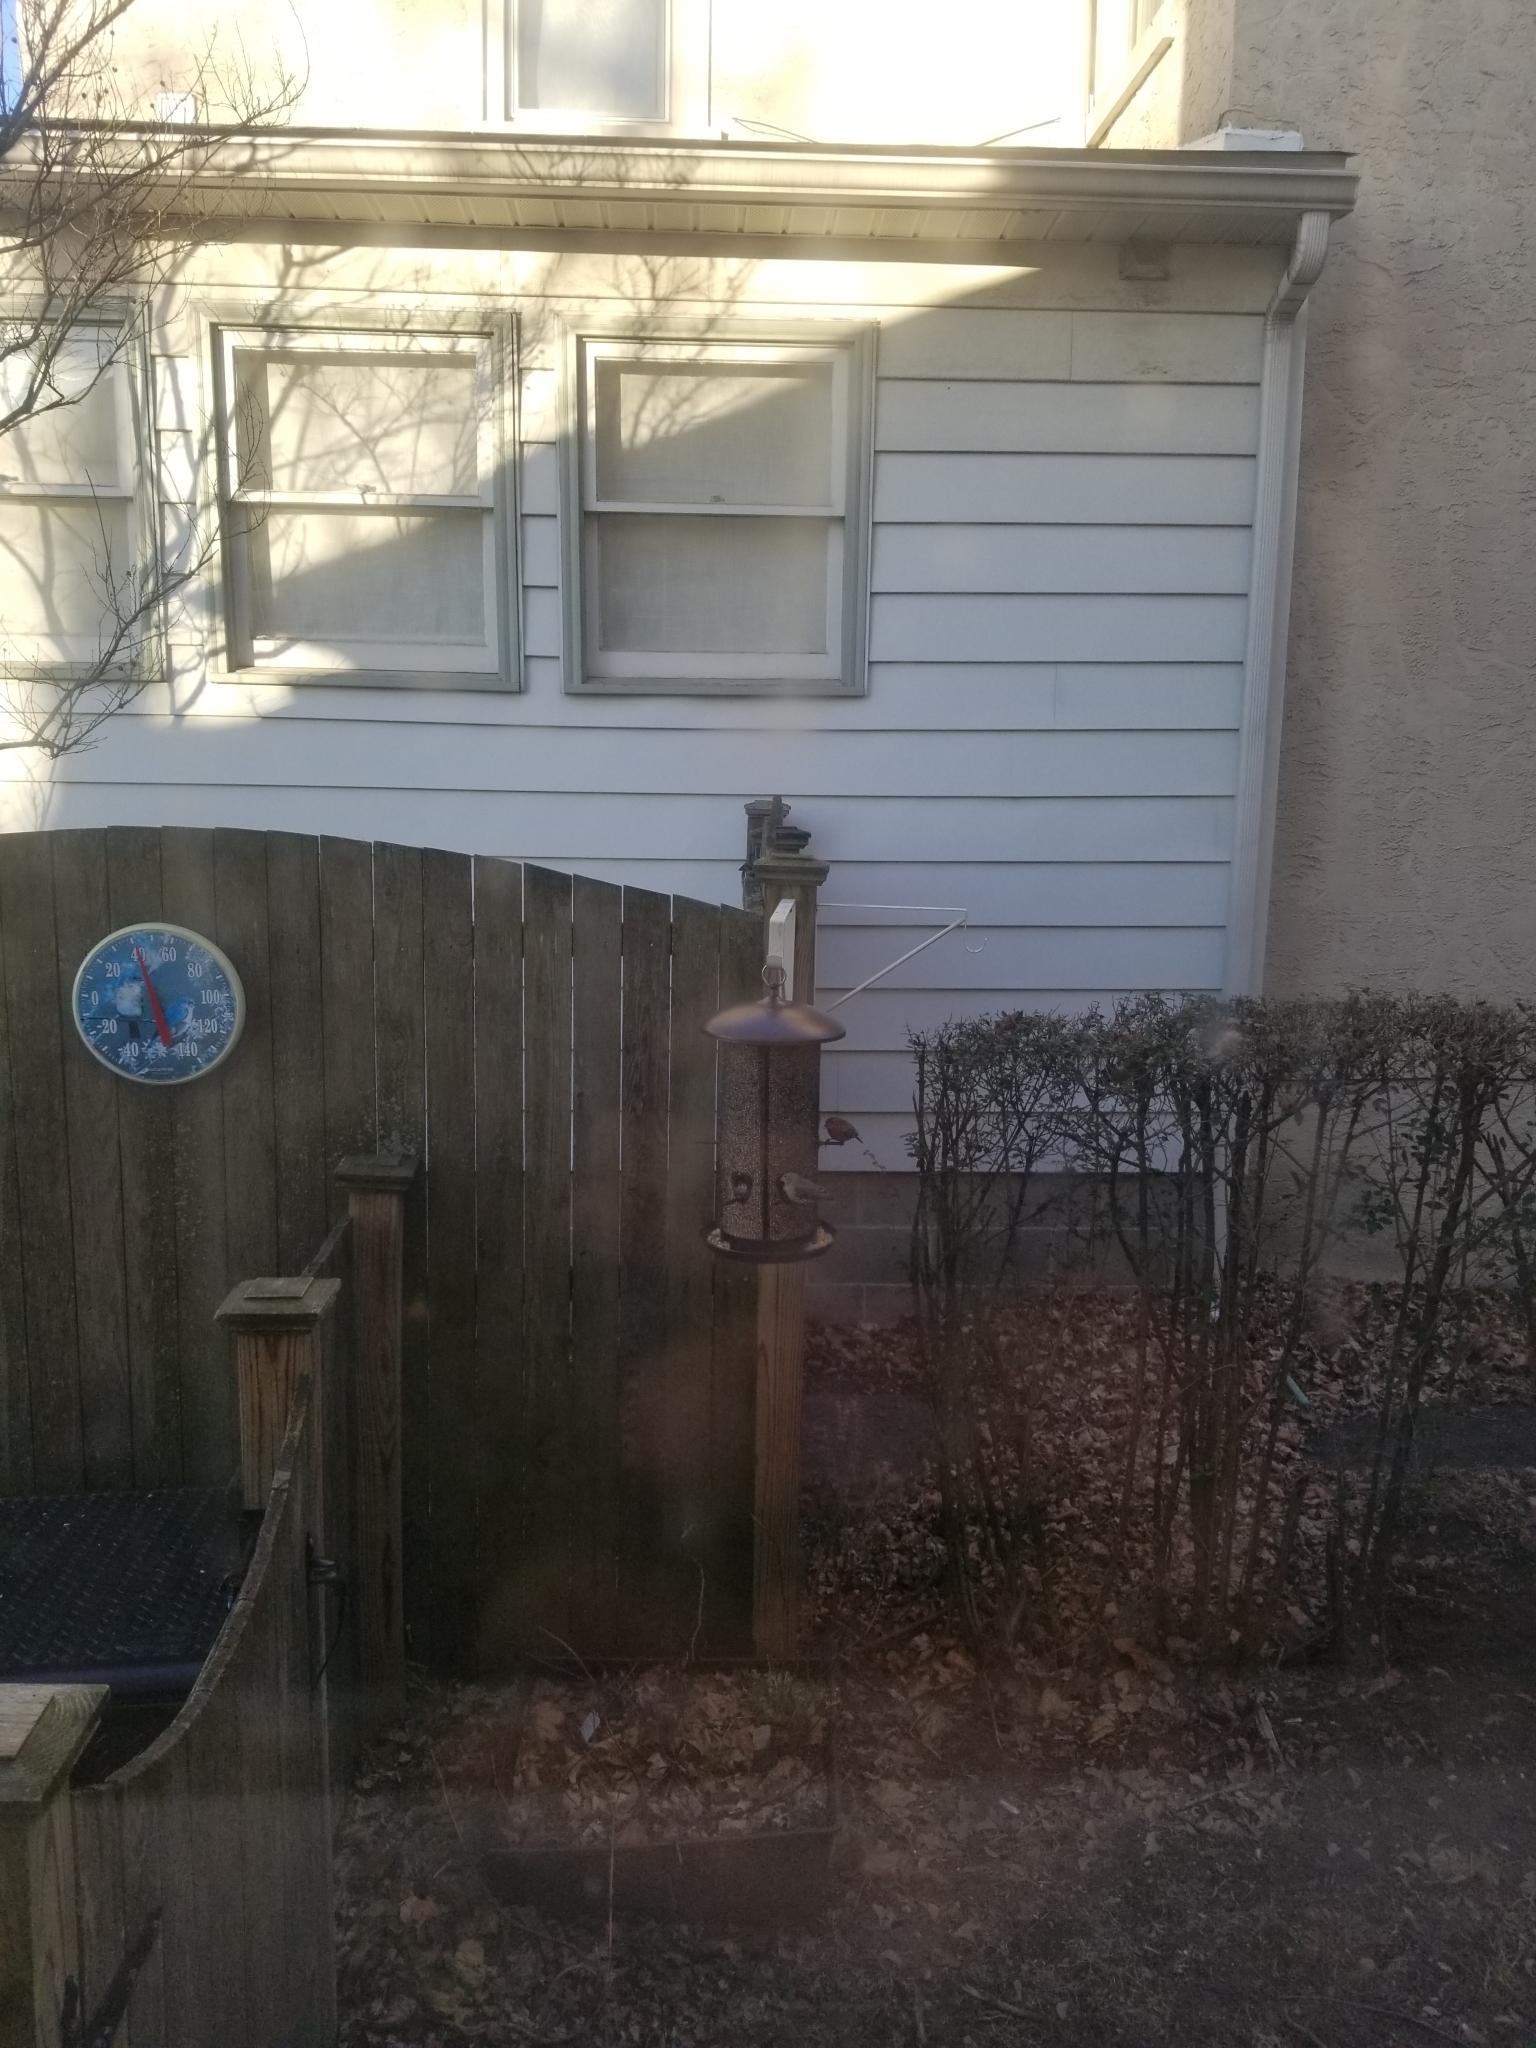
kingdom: Animalia
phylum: Chordata
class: Aves
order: Passeriformes
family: Fringillidae
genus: Haemorhous
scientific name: Haemorhous mexicanus
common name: House finch
